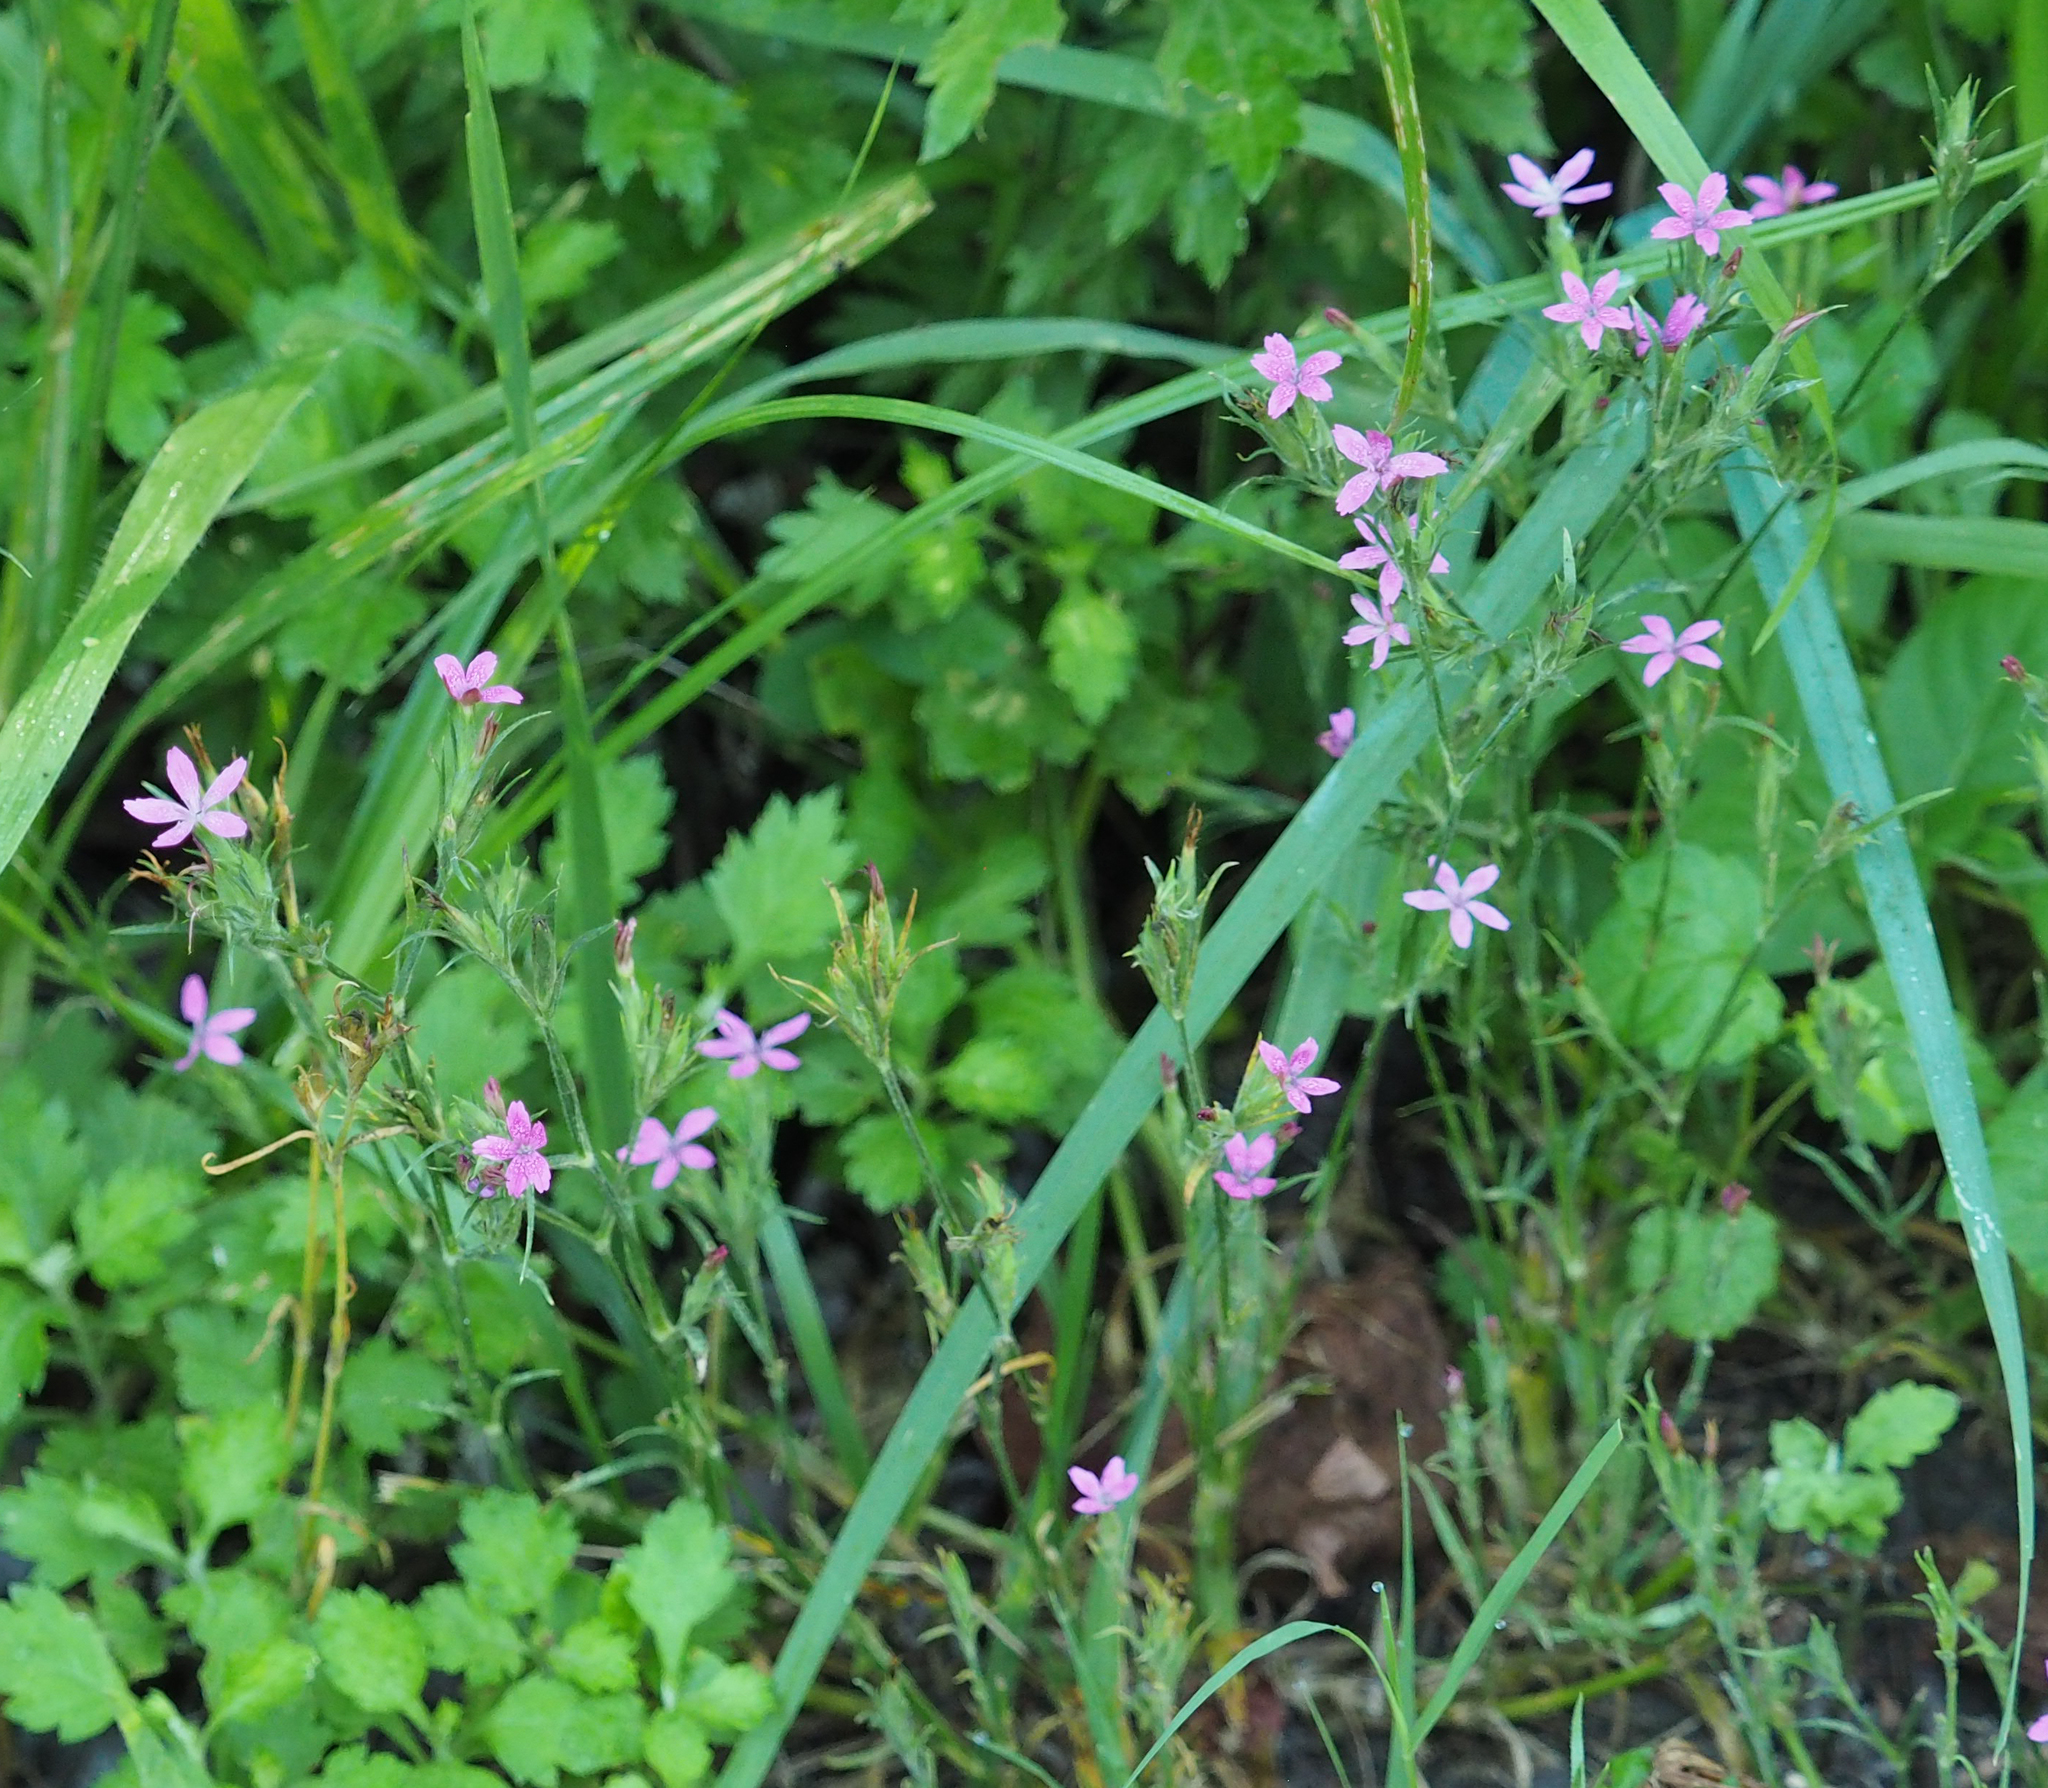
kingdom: Plantae
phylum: Tracheophyta
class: Magnoliopsida
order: Caryophyllales
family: Caryophyllaceae
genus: Dianthus
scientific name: Dianthus armeria
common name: Deptford pink
